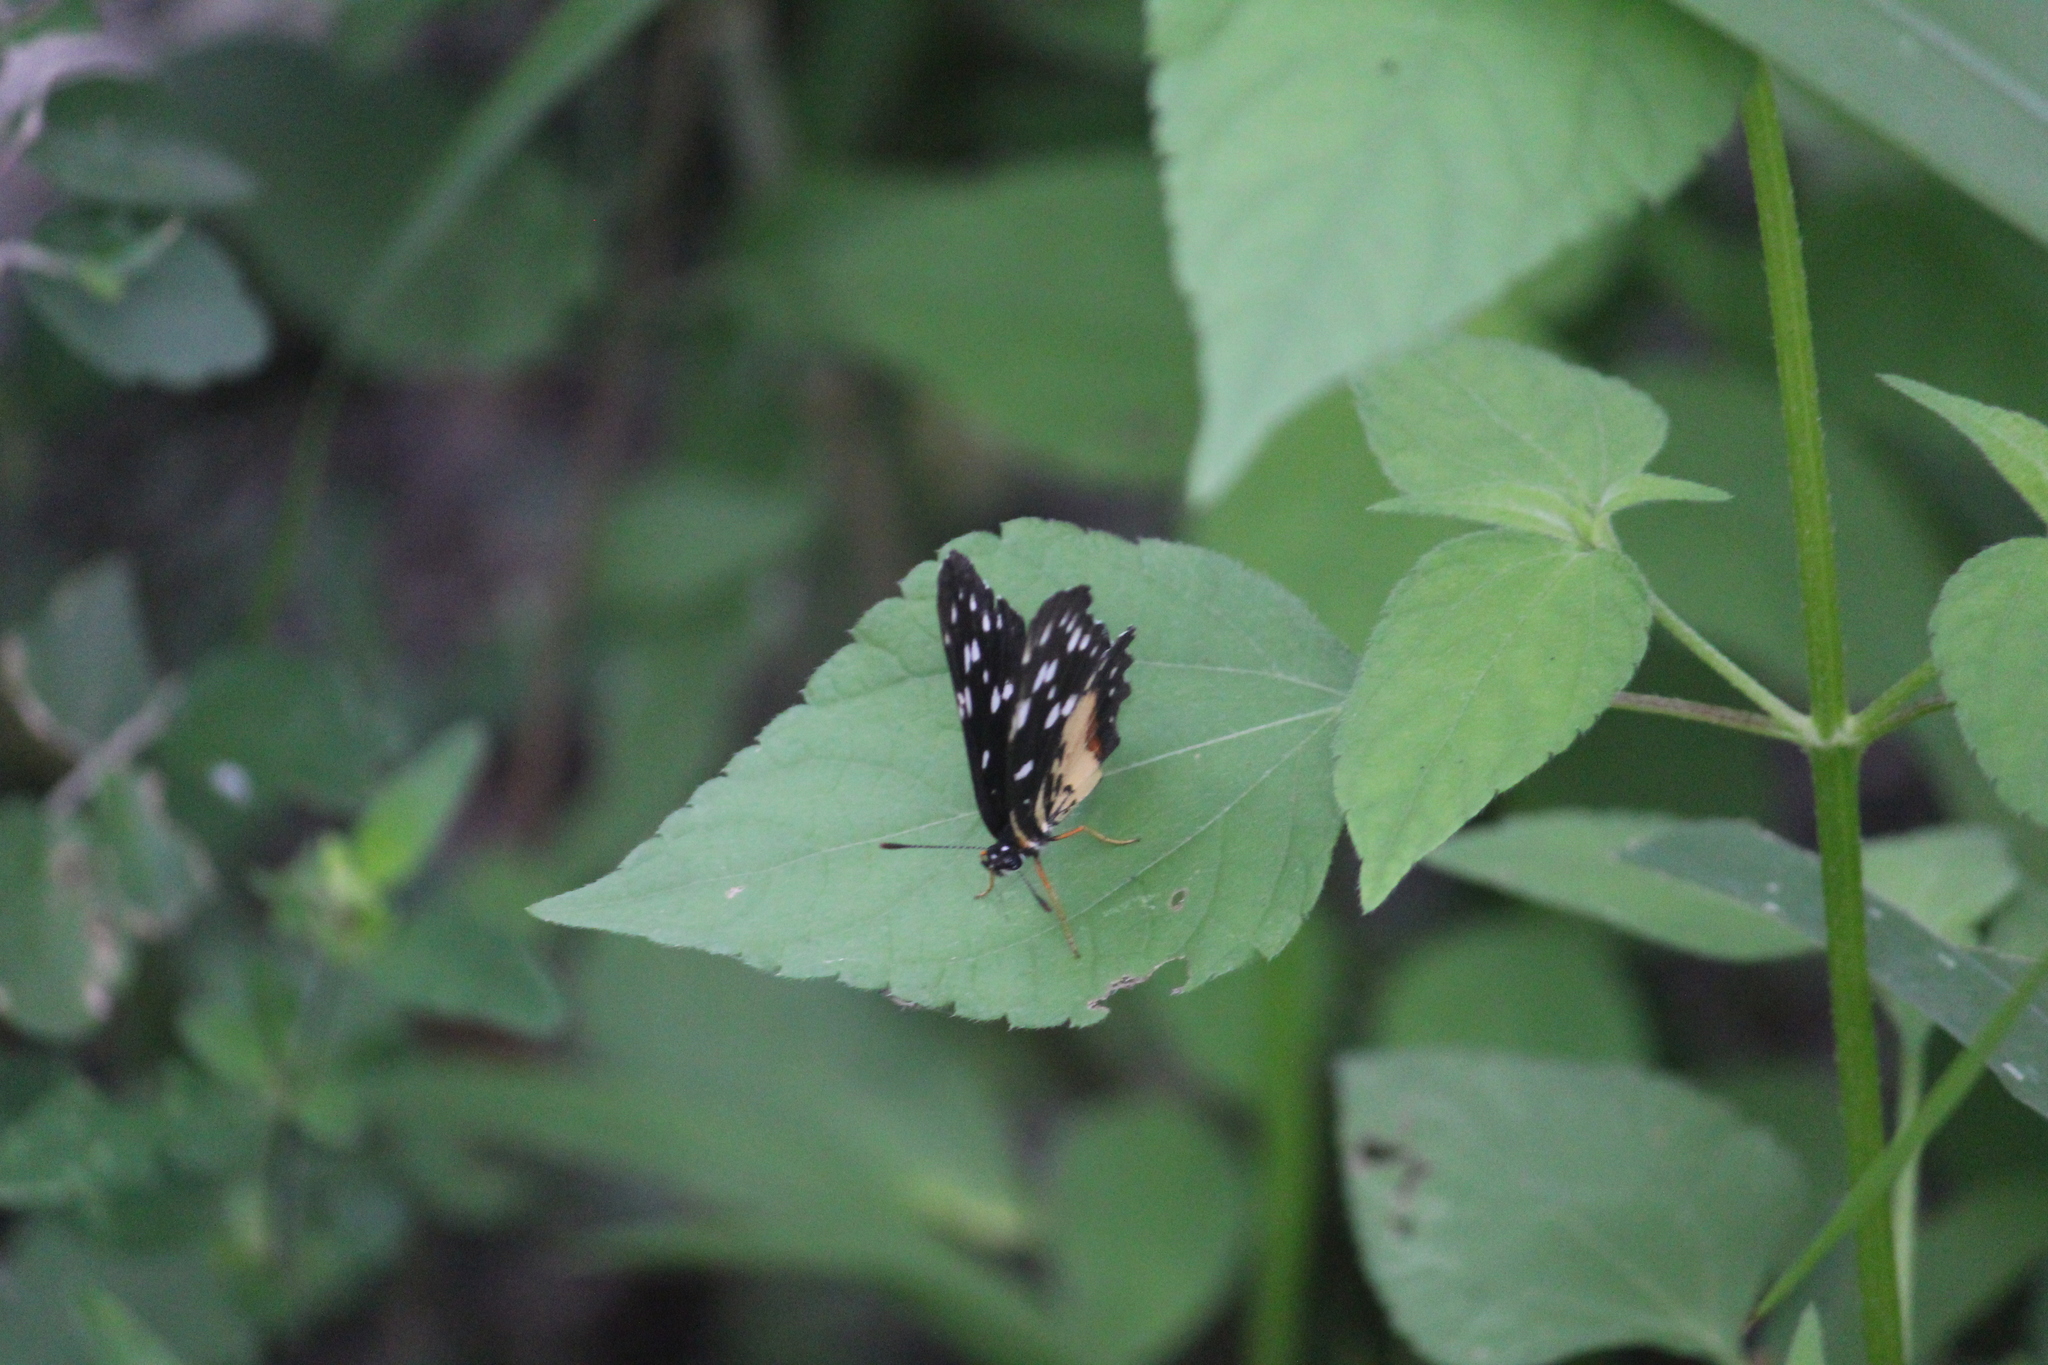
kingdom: Animalia
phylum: Arthropoda
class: Insecta
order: Lepidoptera
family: Nymphalidae
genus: Chlosyne
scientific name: Chlosyne rosita
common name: Rosita patch
